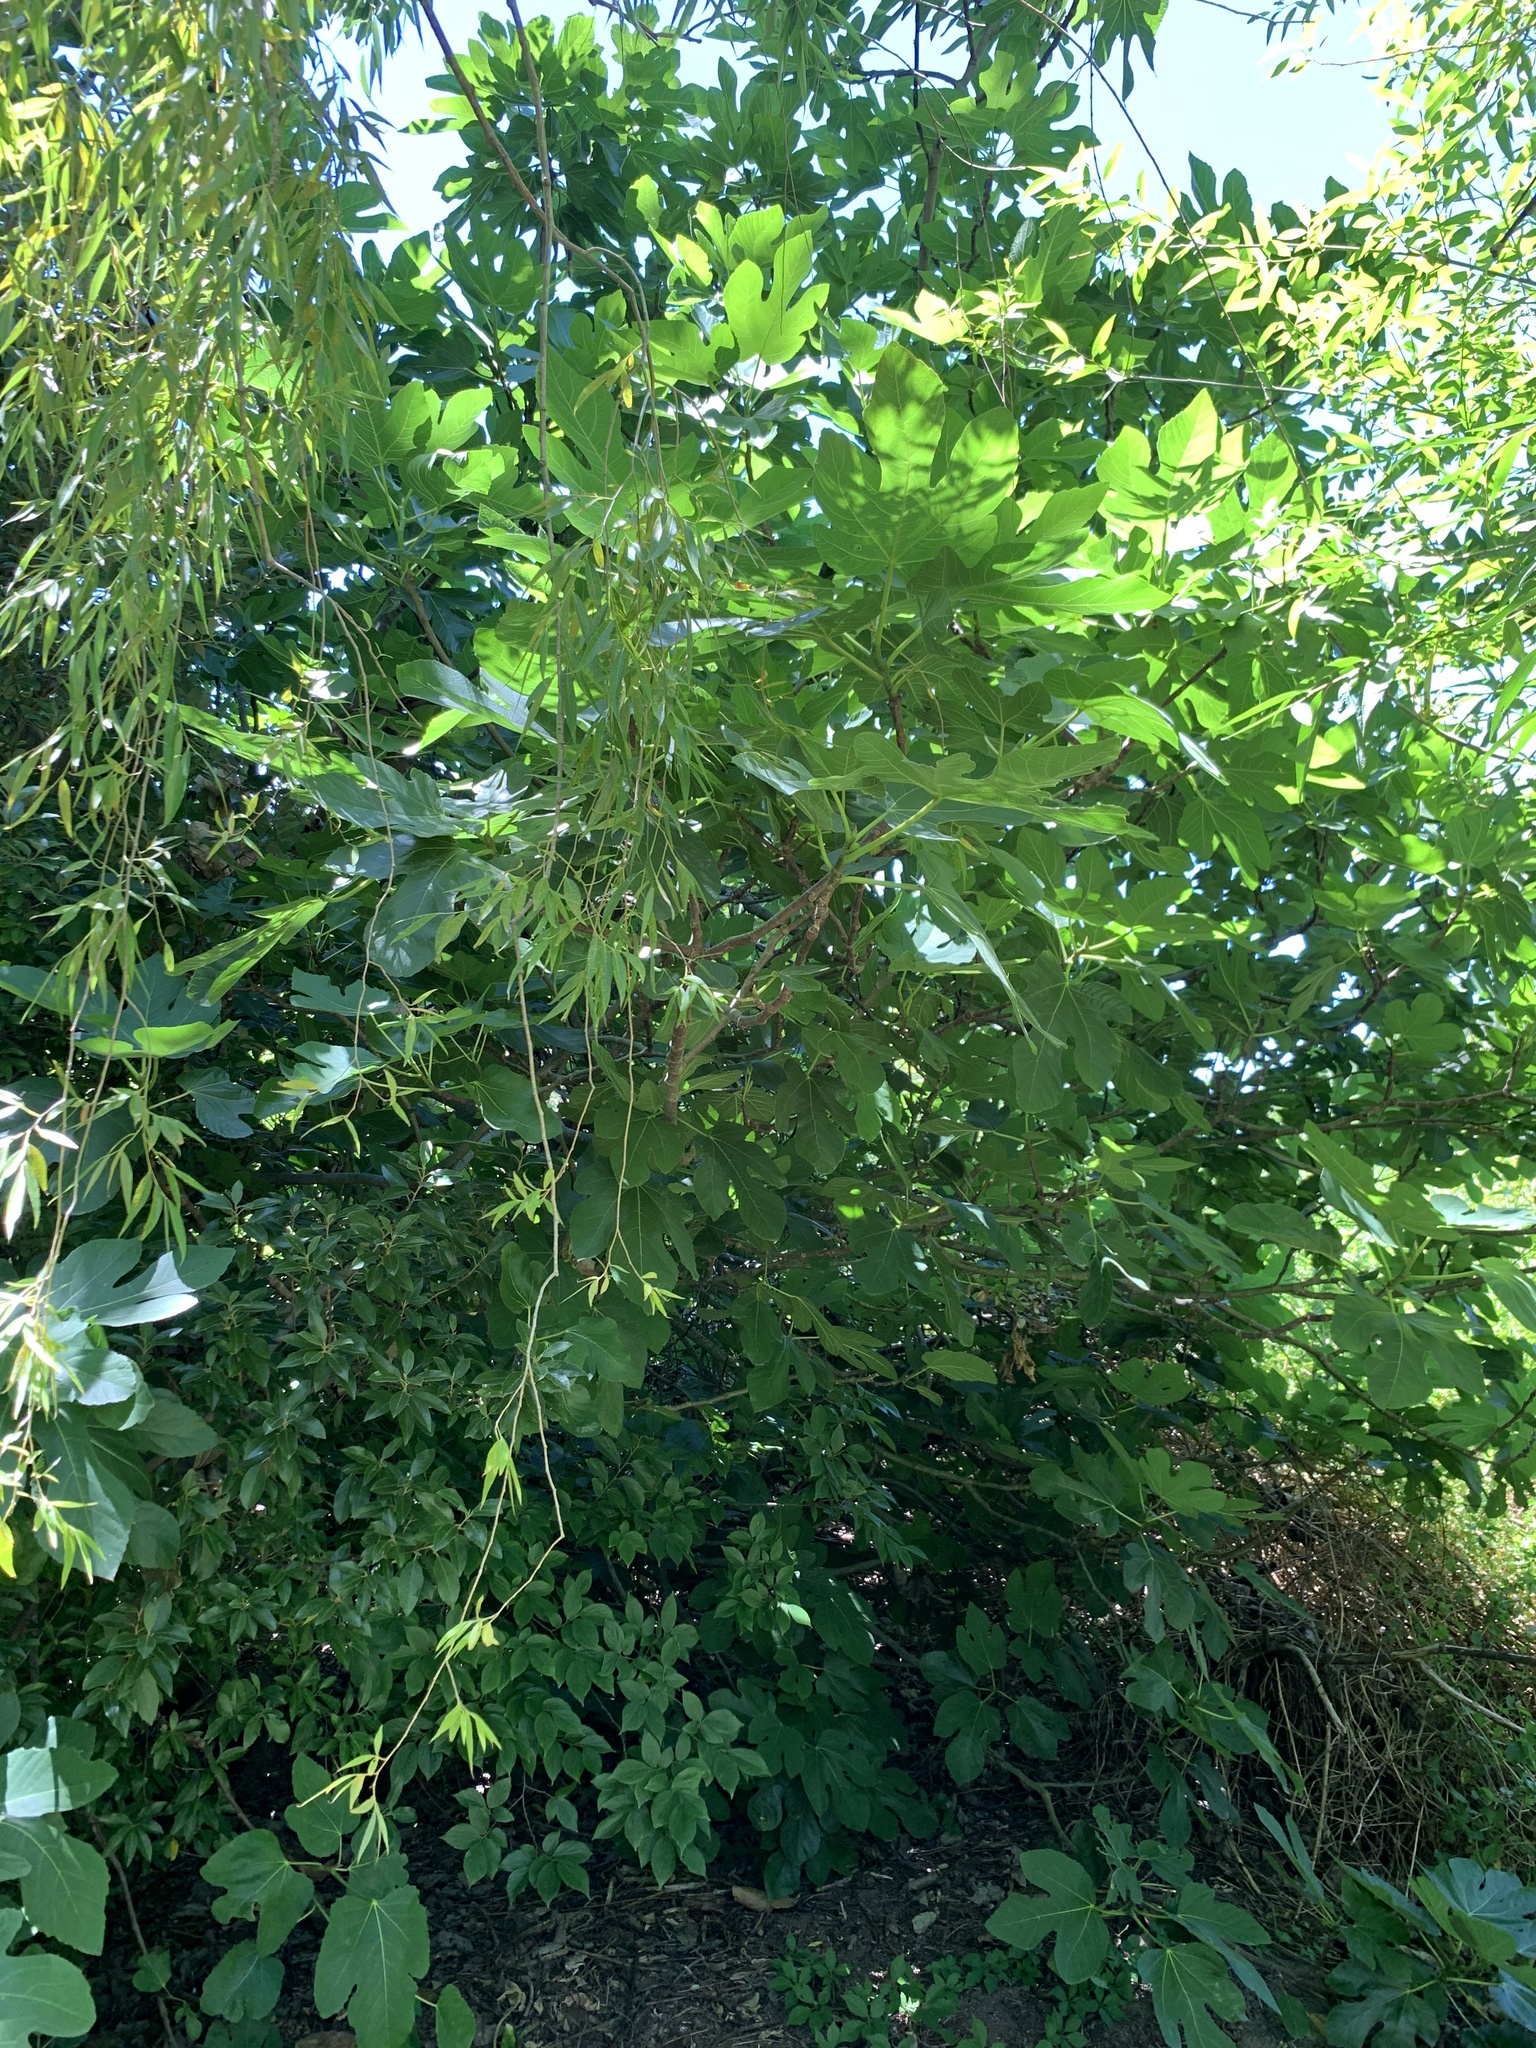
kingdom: Plantae
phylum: Tracheophyta
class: Magnoliopsida
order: Rosales
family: Moraceae
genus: Ficus
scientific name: Ficus carica
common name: Fig
